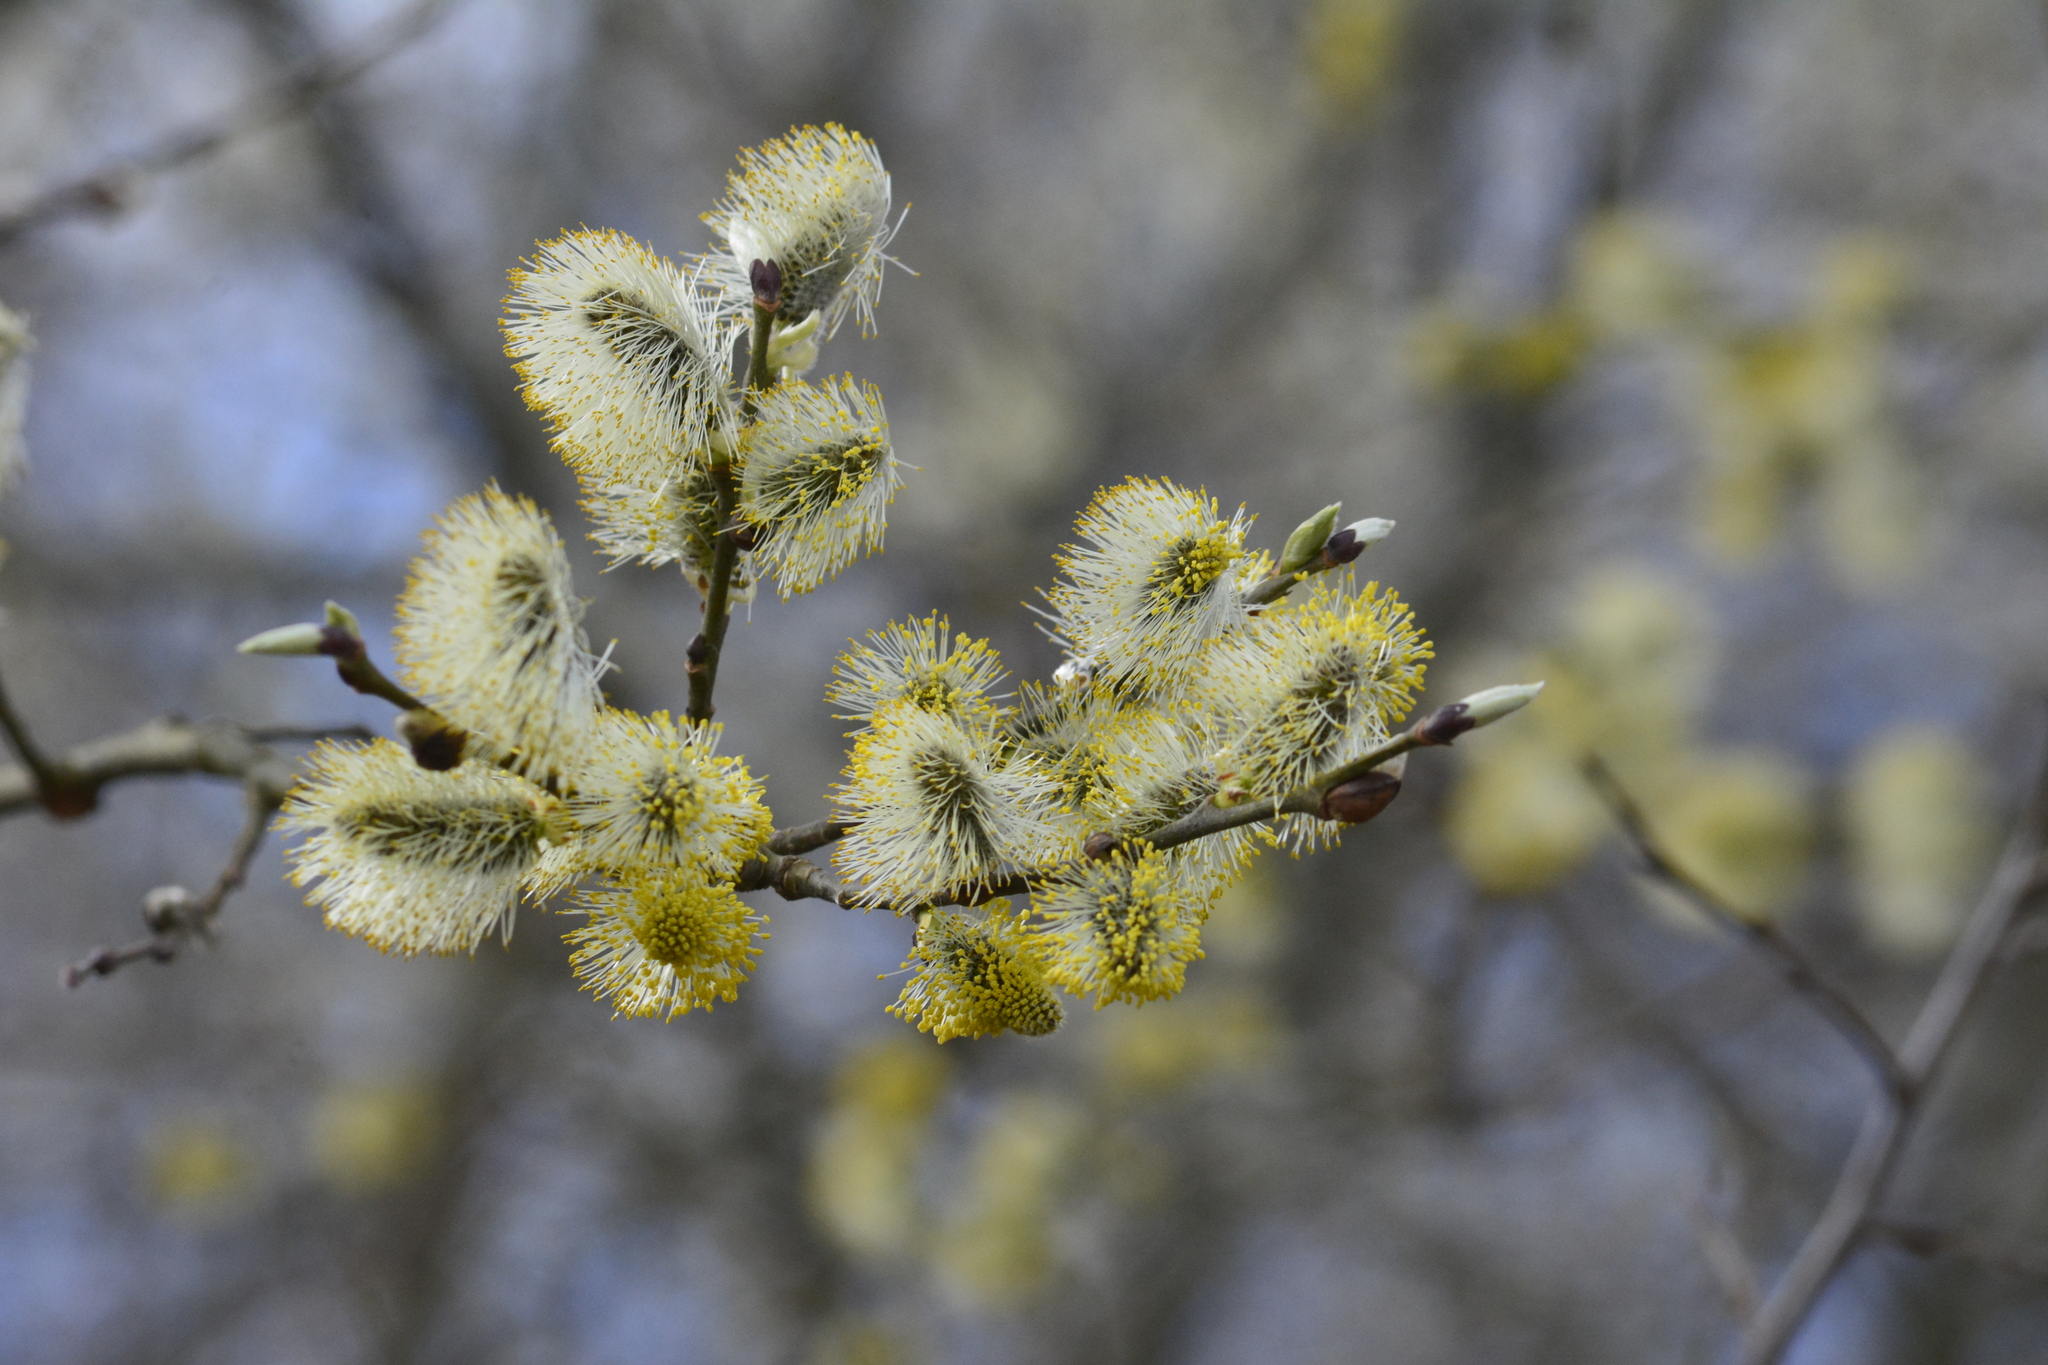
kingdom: Plantae
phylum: Tracheophyta
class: Magnoliopsida
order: Malpighiales
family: Salicaceae
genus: Salix
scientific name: Salix caprea
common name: Goat willow
